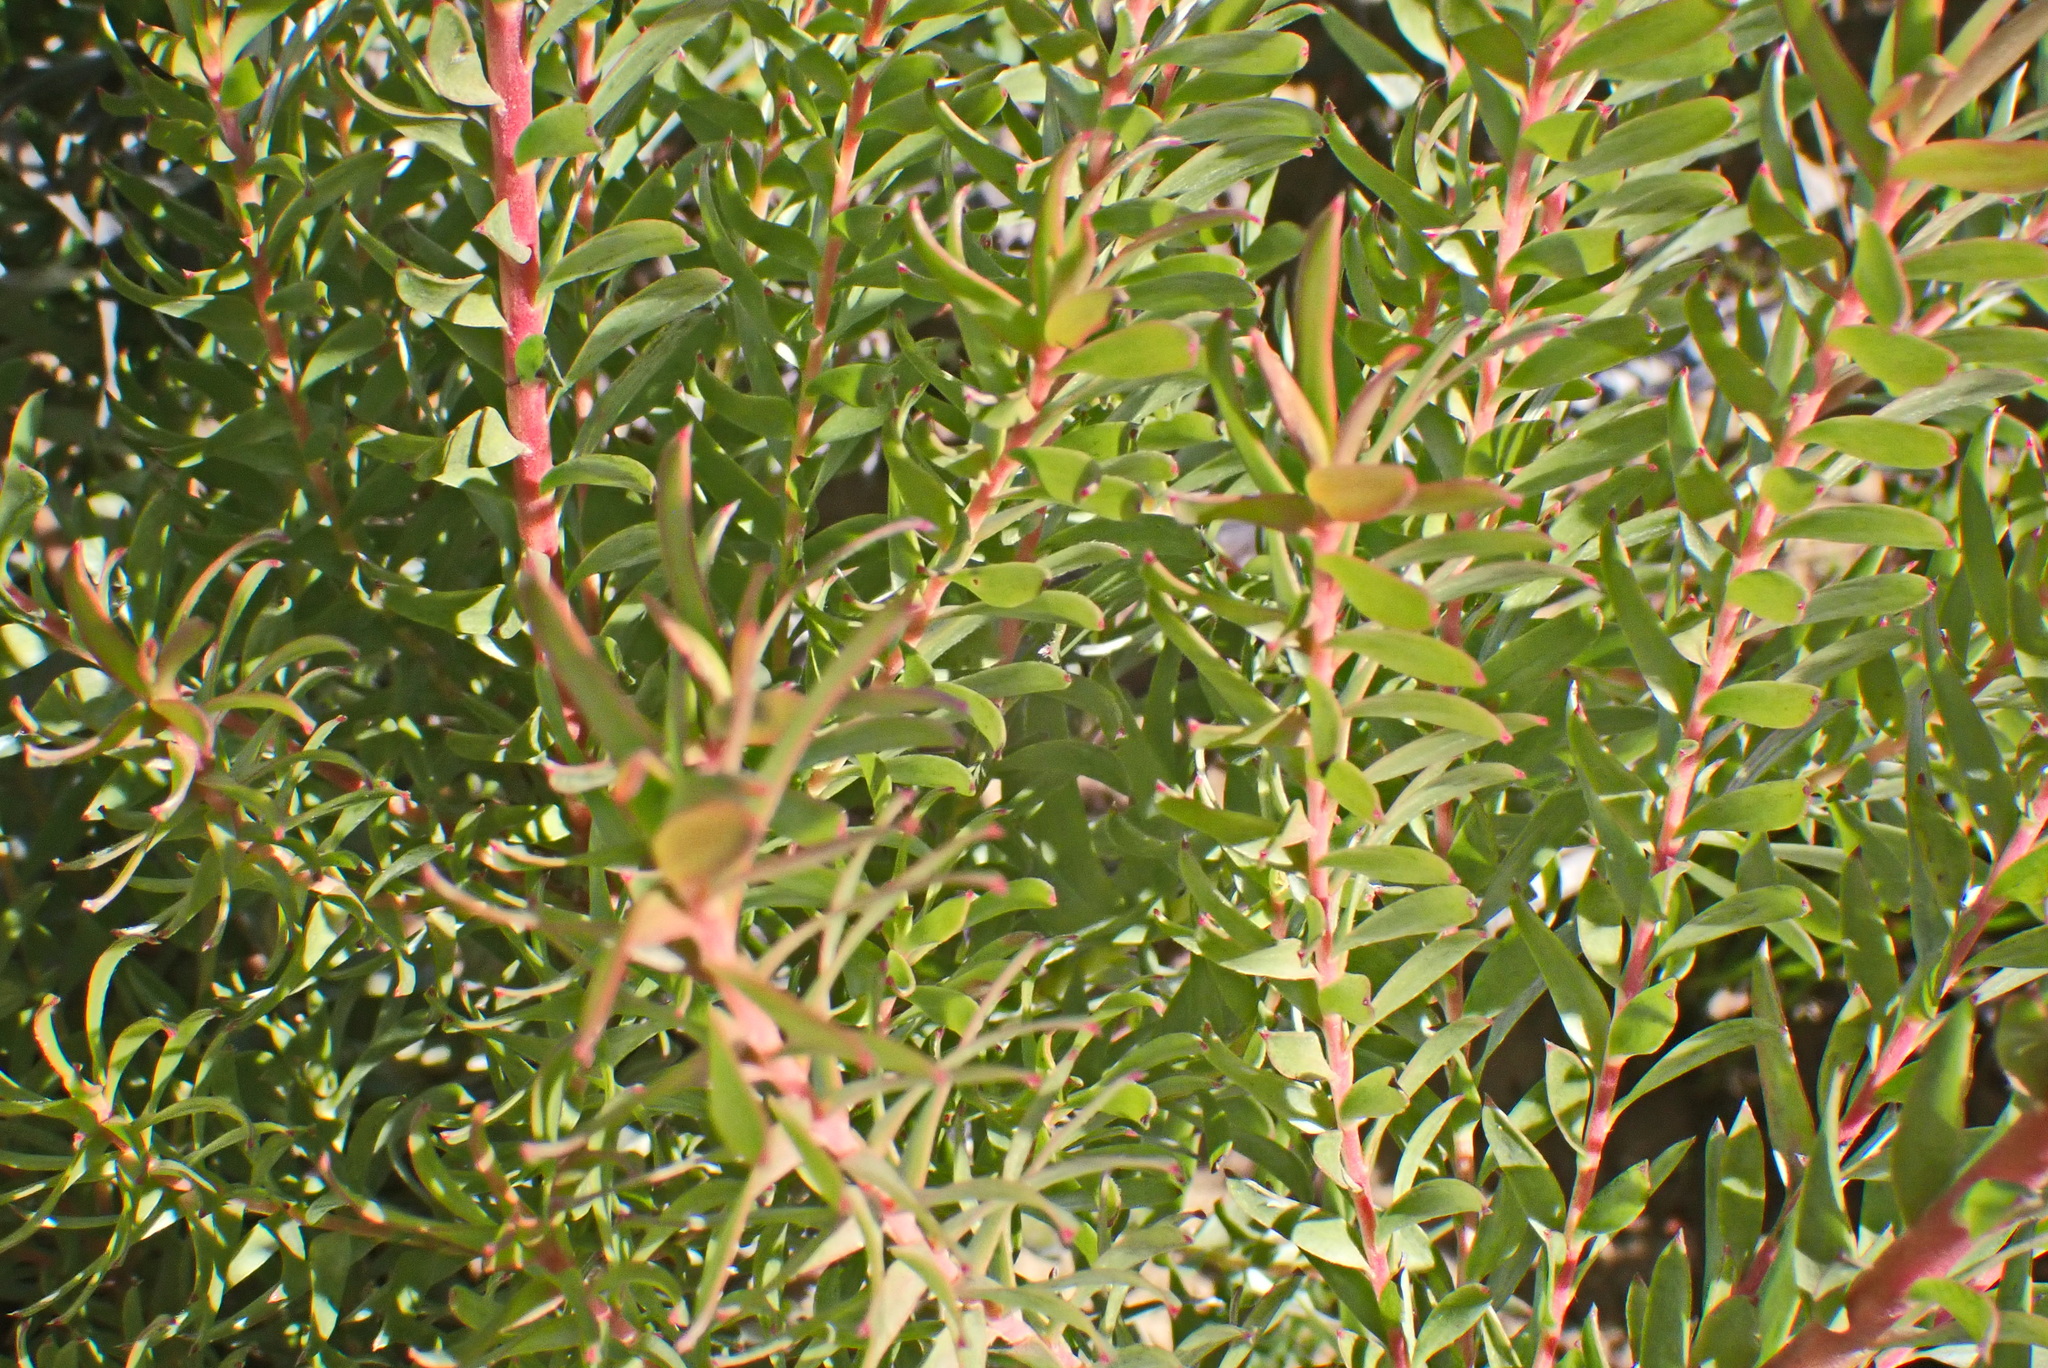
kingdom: Plantae
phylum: Tracheophyta
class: Magnoliopsida
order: Proteales
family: Proteaceae
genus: Leucadendron
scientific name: Leucadendron uliginosum
